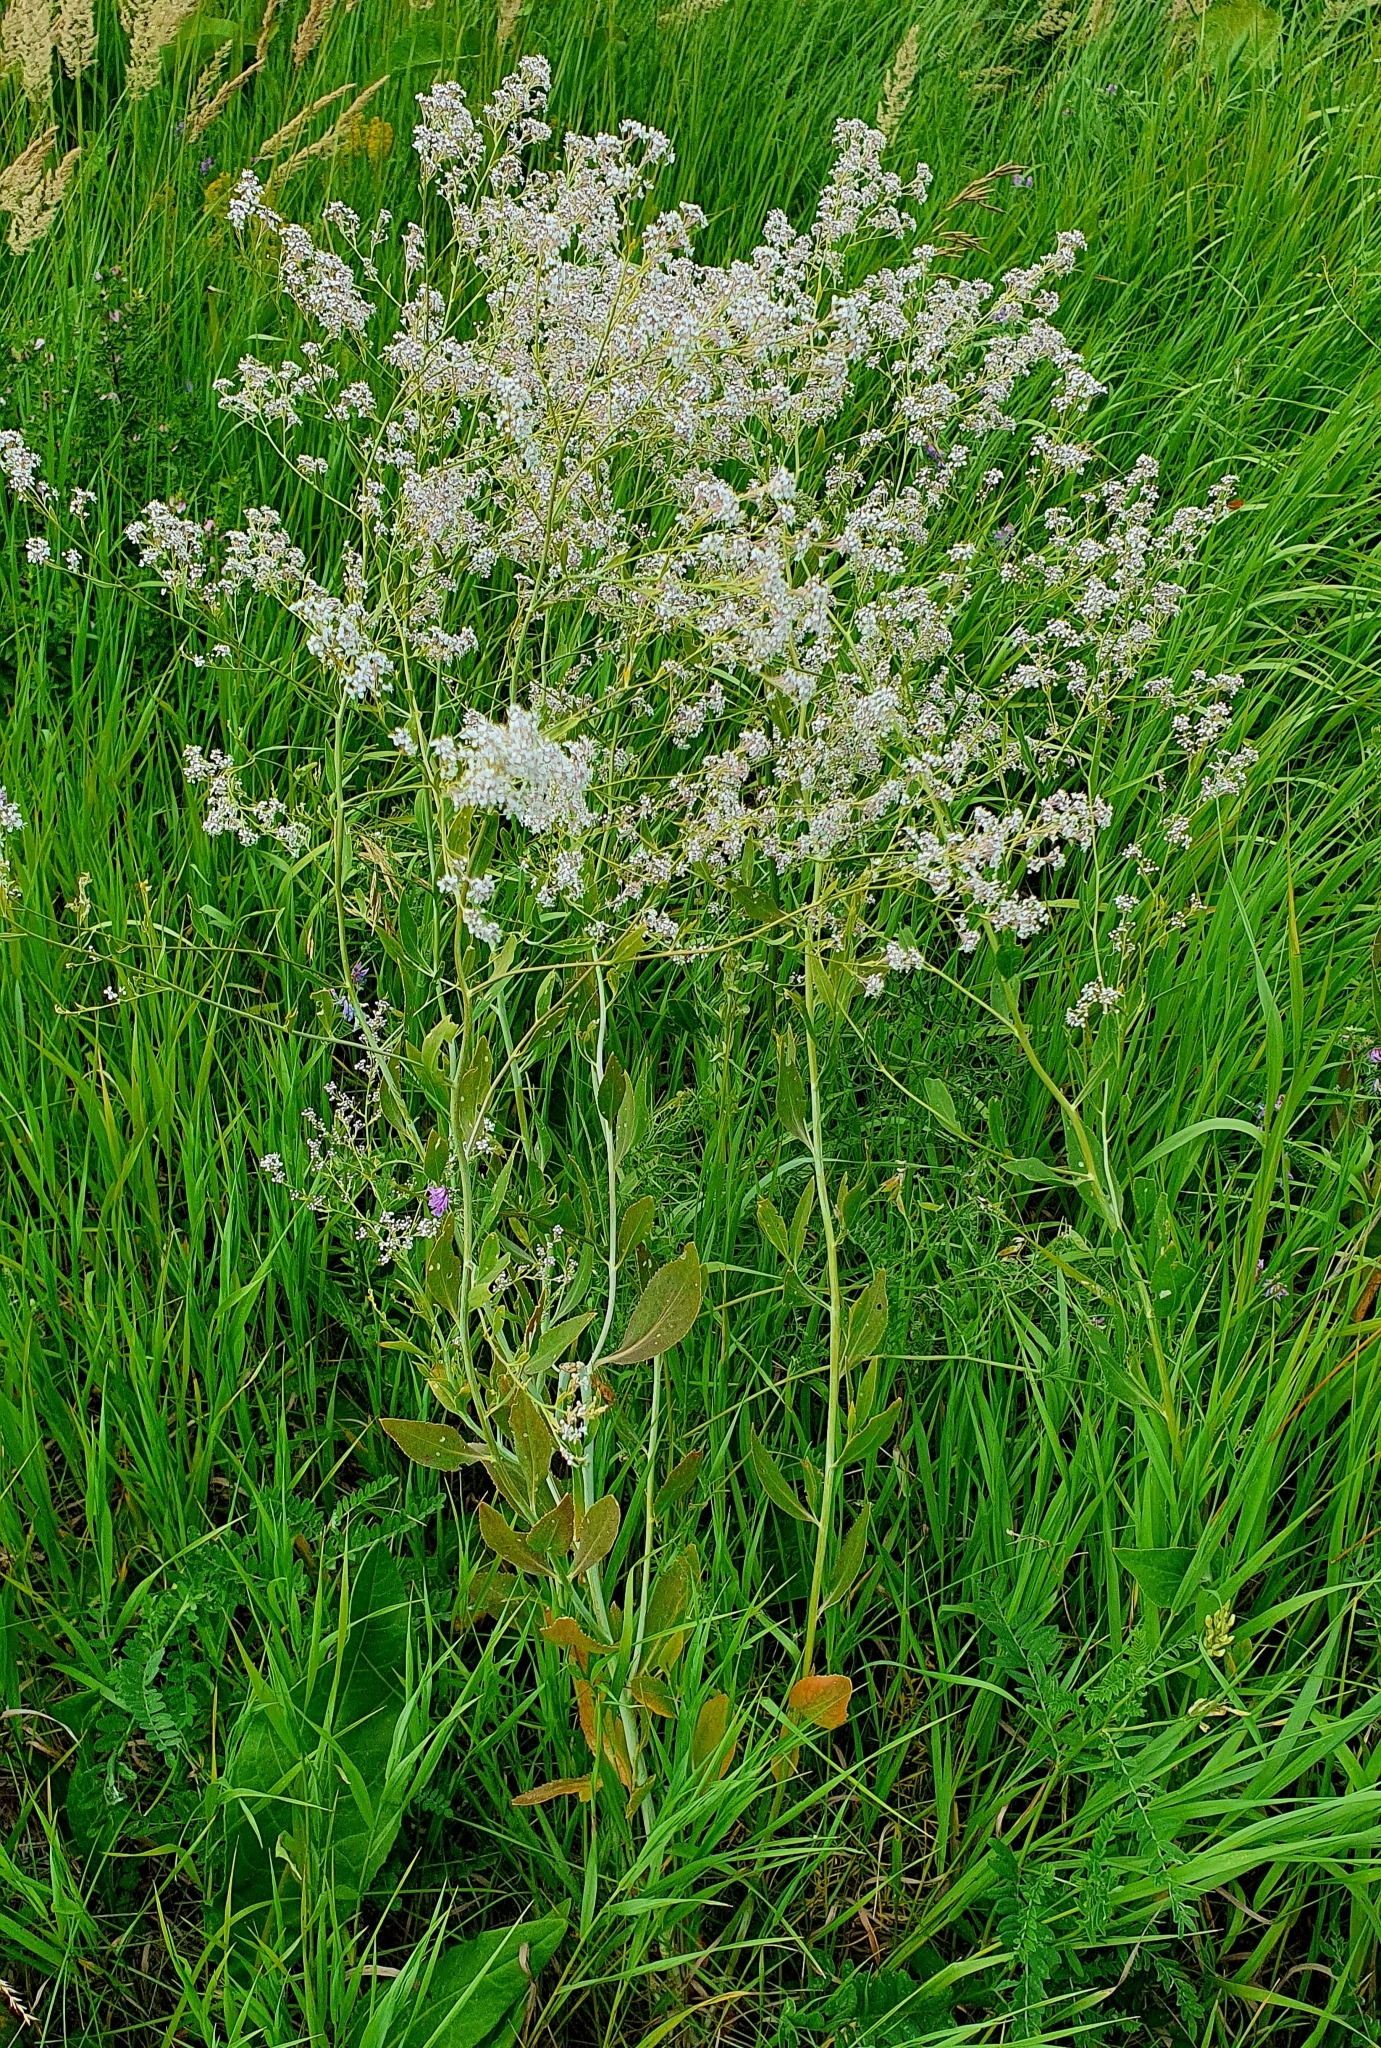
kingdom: Plantae
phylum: Tracheophyta
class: Magnoliopsida
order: Brassicales
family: Brassicaceae
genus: Lepidium
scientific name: Lepidium latifolium
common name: Dittander
